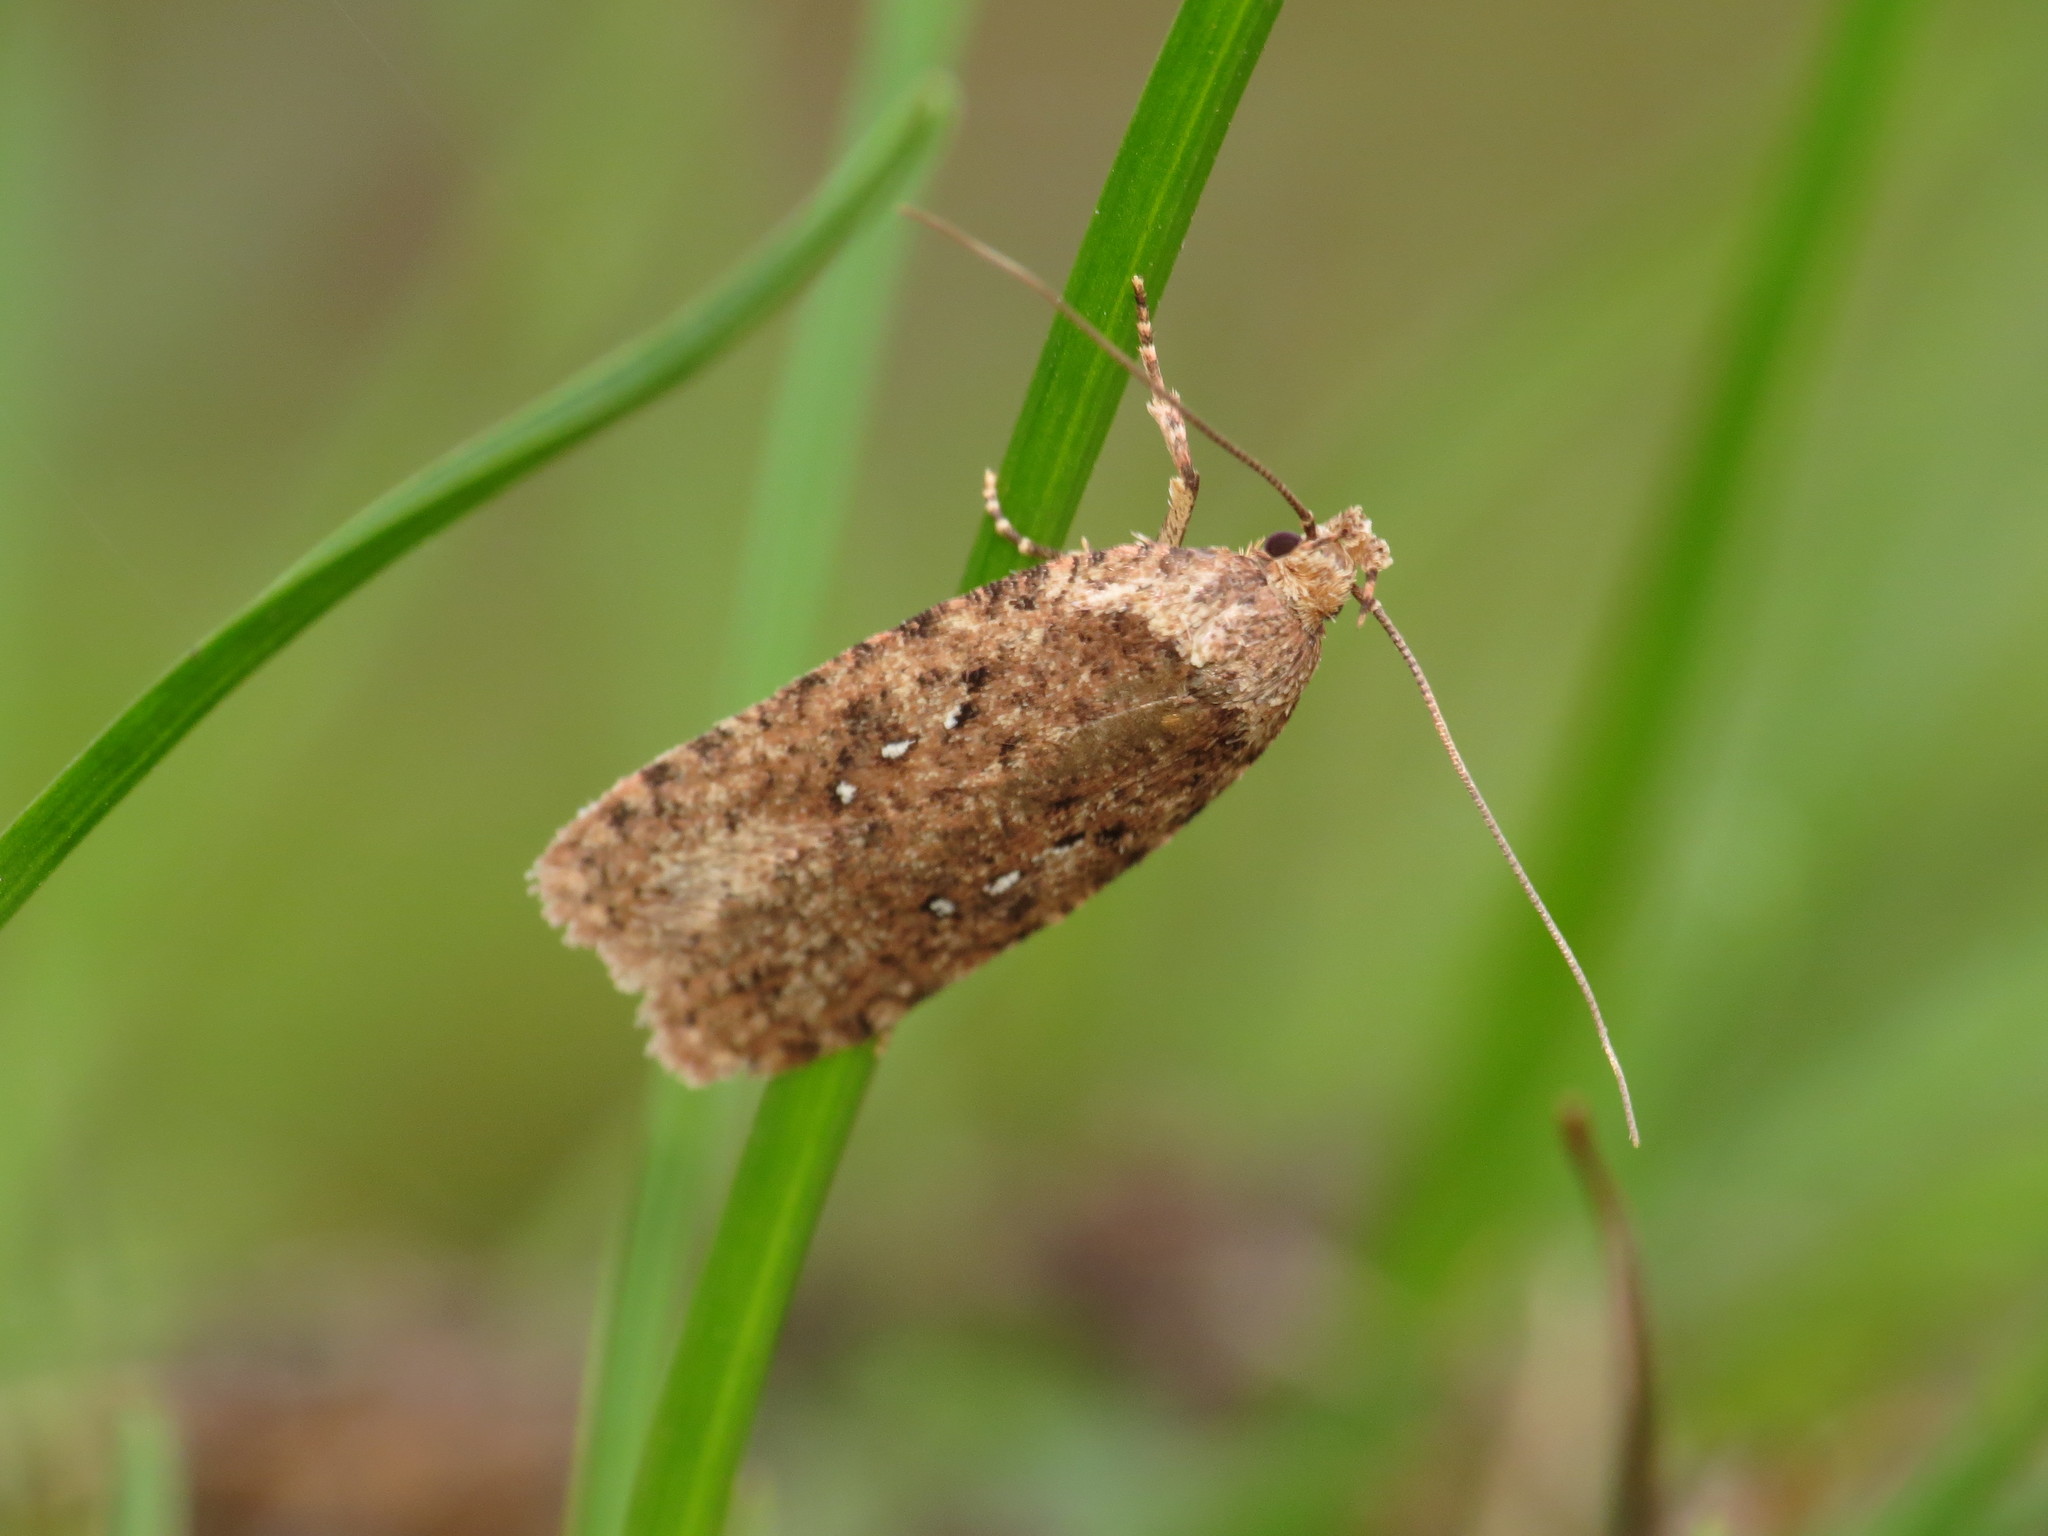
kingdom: Animalia
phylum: Arthropoda
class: Insecta
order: Lepidoptera
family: Depressariidae
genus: Agonopterix
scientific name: Agonopterix heracliana
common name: Common flat-body
